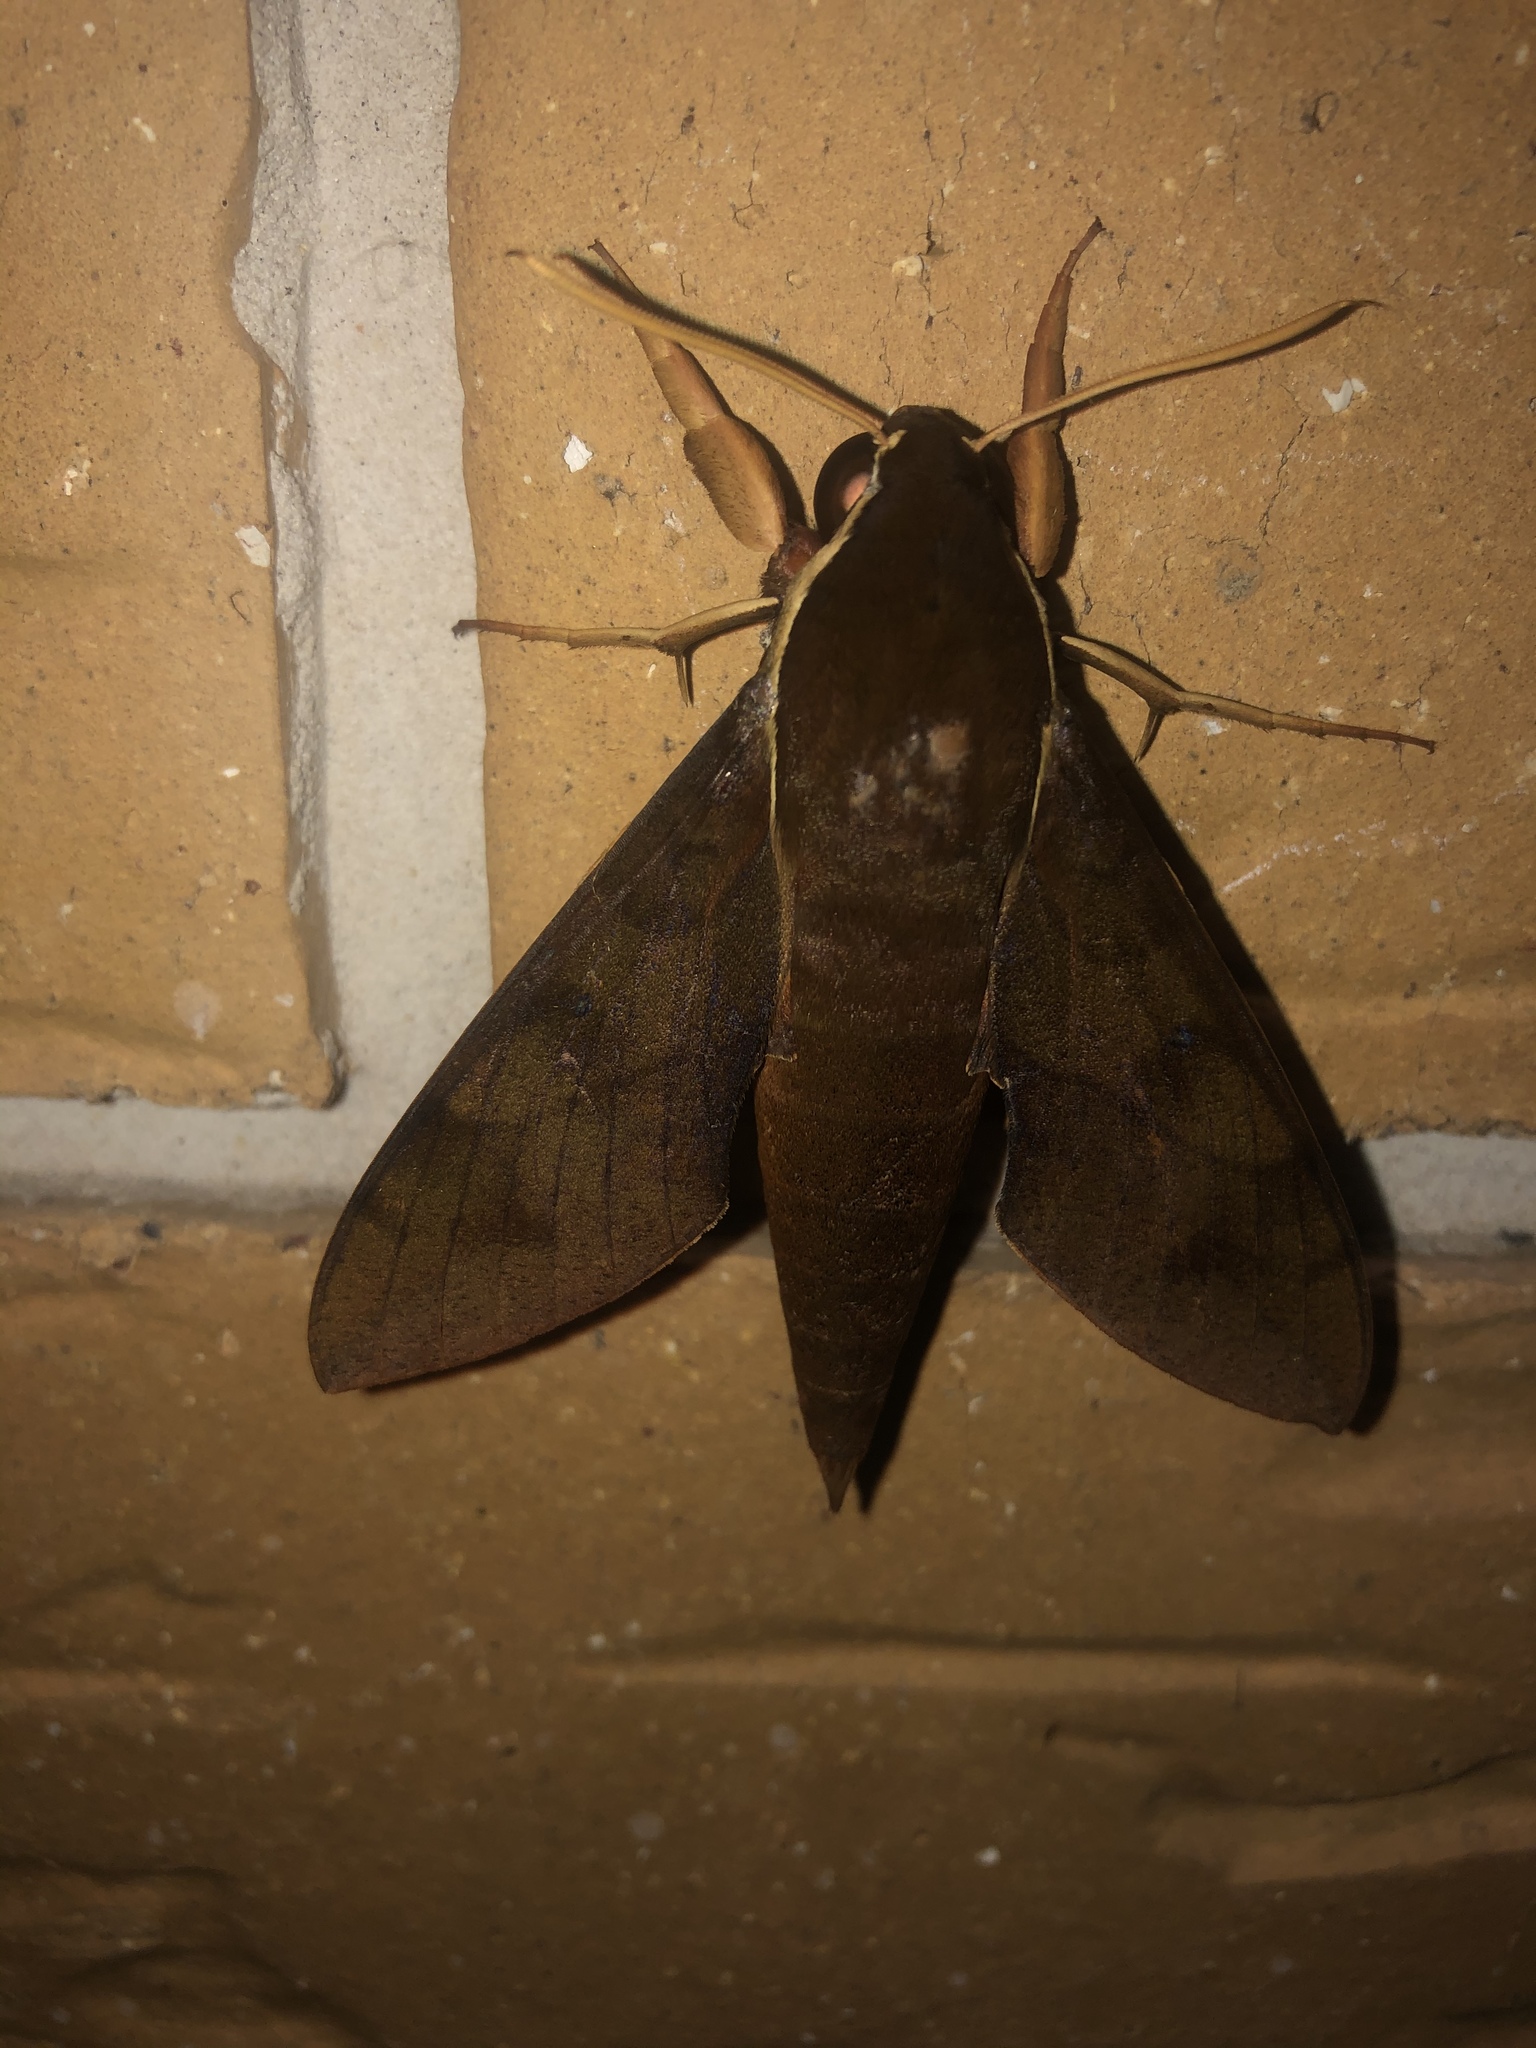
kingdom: Animalia
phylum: Arthropoda
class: Insecta
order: Lepidoptera
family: Sphingidae
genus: Gnathothlibus
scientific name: Gnathothlibus eras
